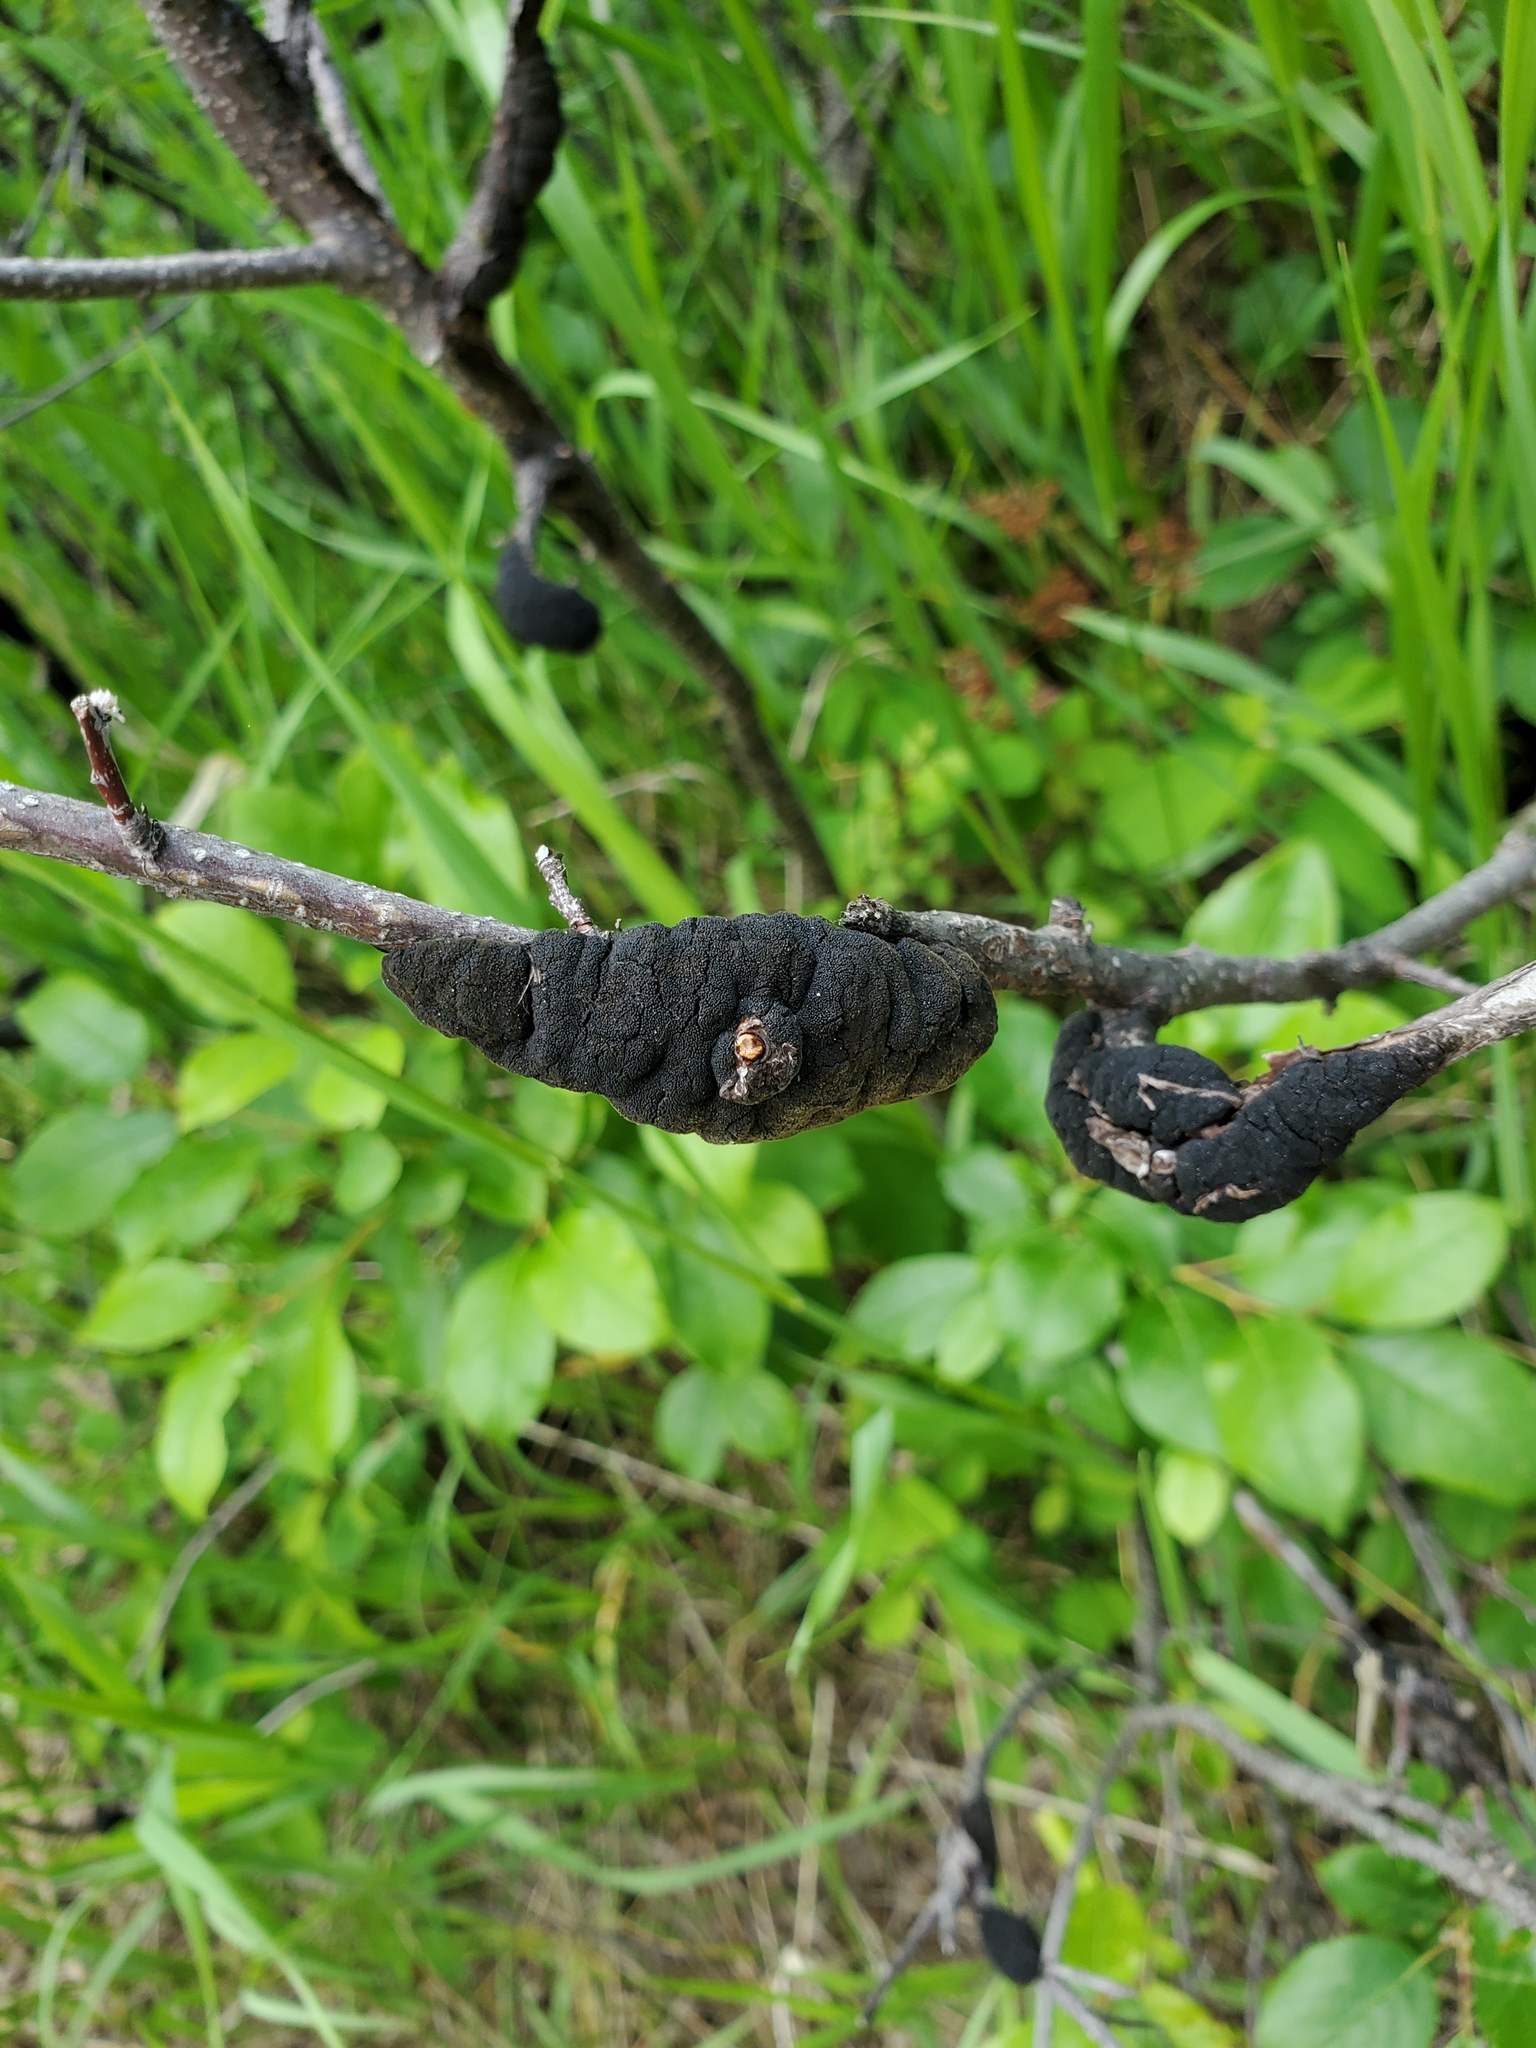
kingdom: Fungi
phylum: Ascomycota
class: Dothideomycetes
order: Venturiales
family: Venturiaceae
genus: Apiosporina
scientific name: Apiosporina morbosa
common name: Black knot
